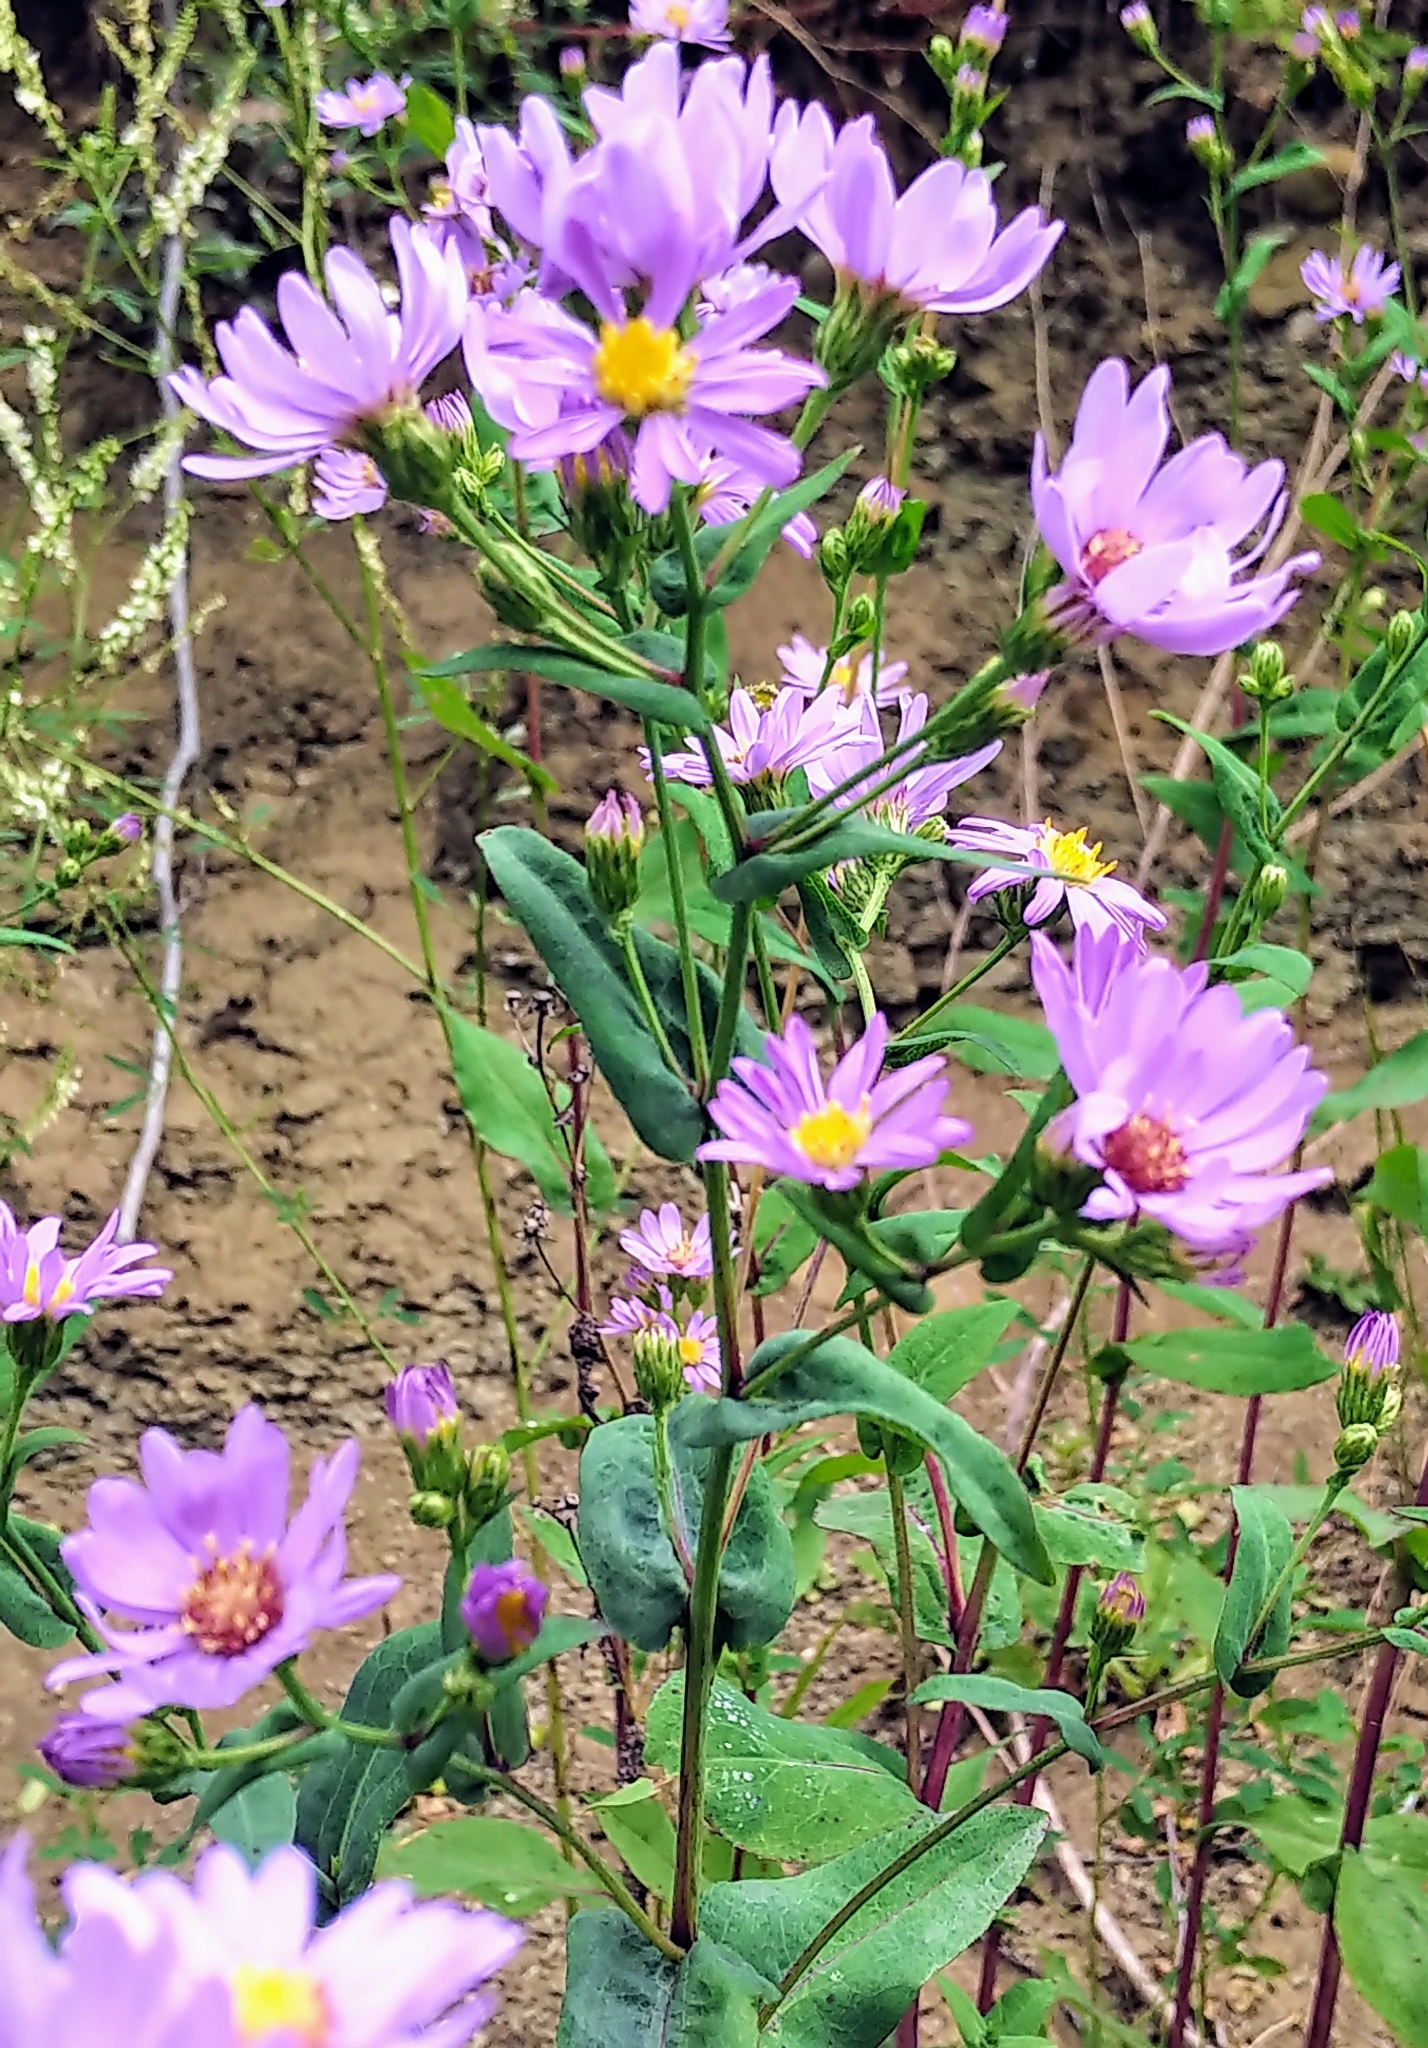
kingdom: Plantae
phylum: Tracheophyta
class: Magnoliopsida
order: Asterales
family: Asteraceae
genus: Symphyotrichum
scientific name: Symphyotrichum laeve
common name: Glaucous aster
